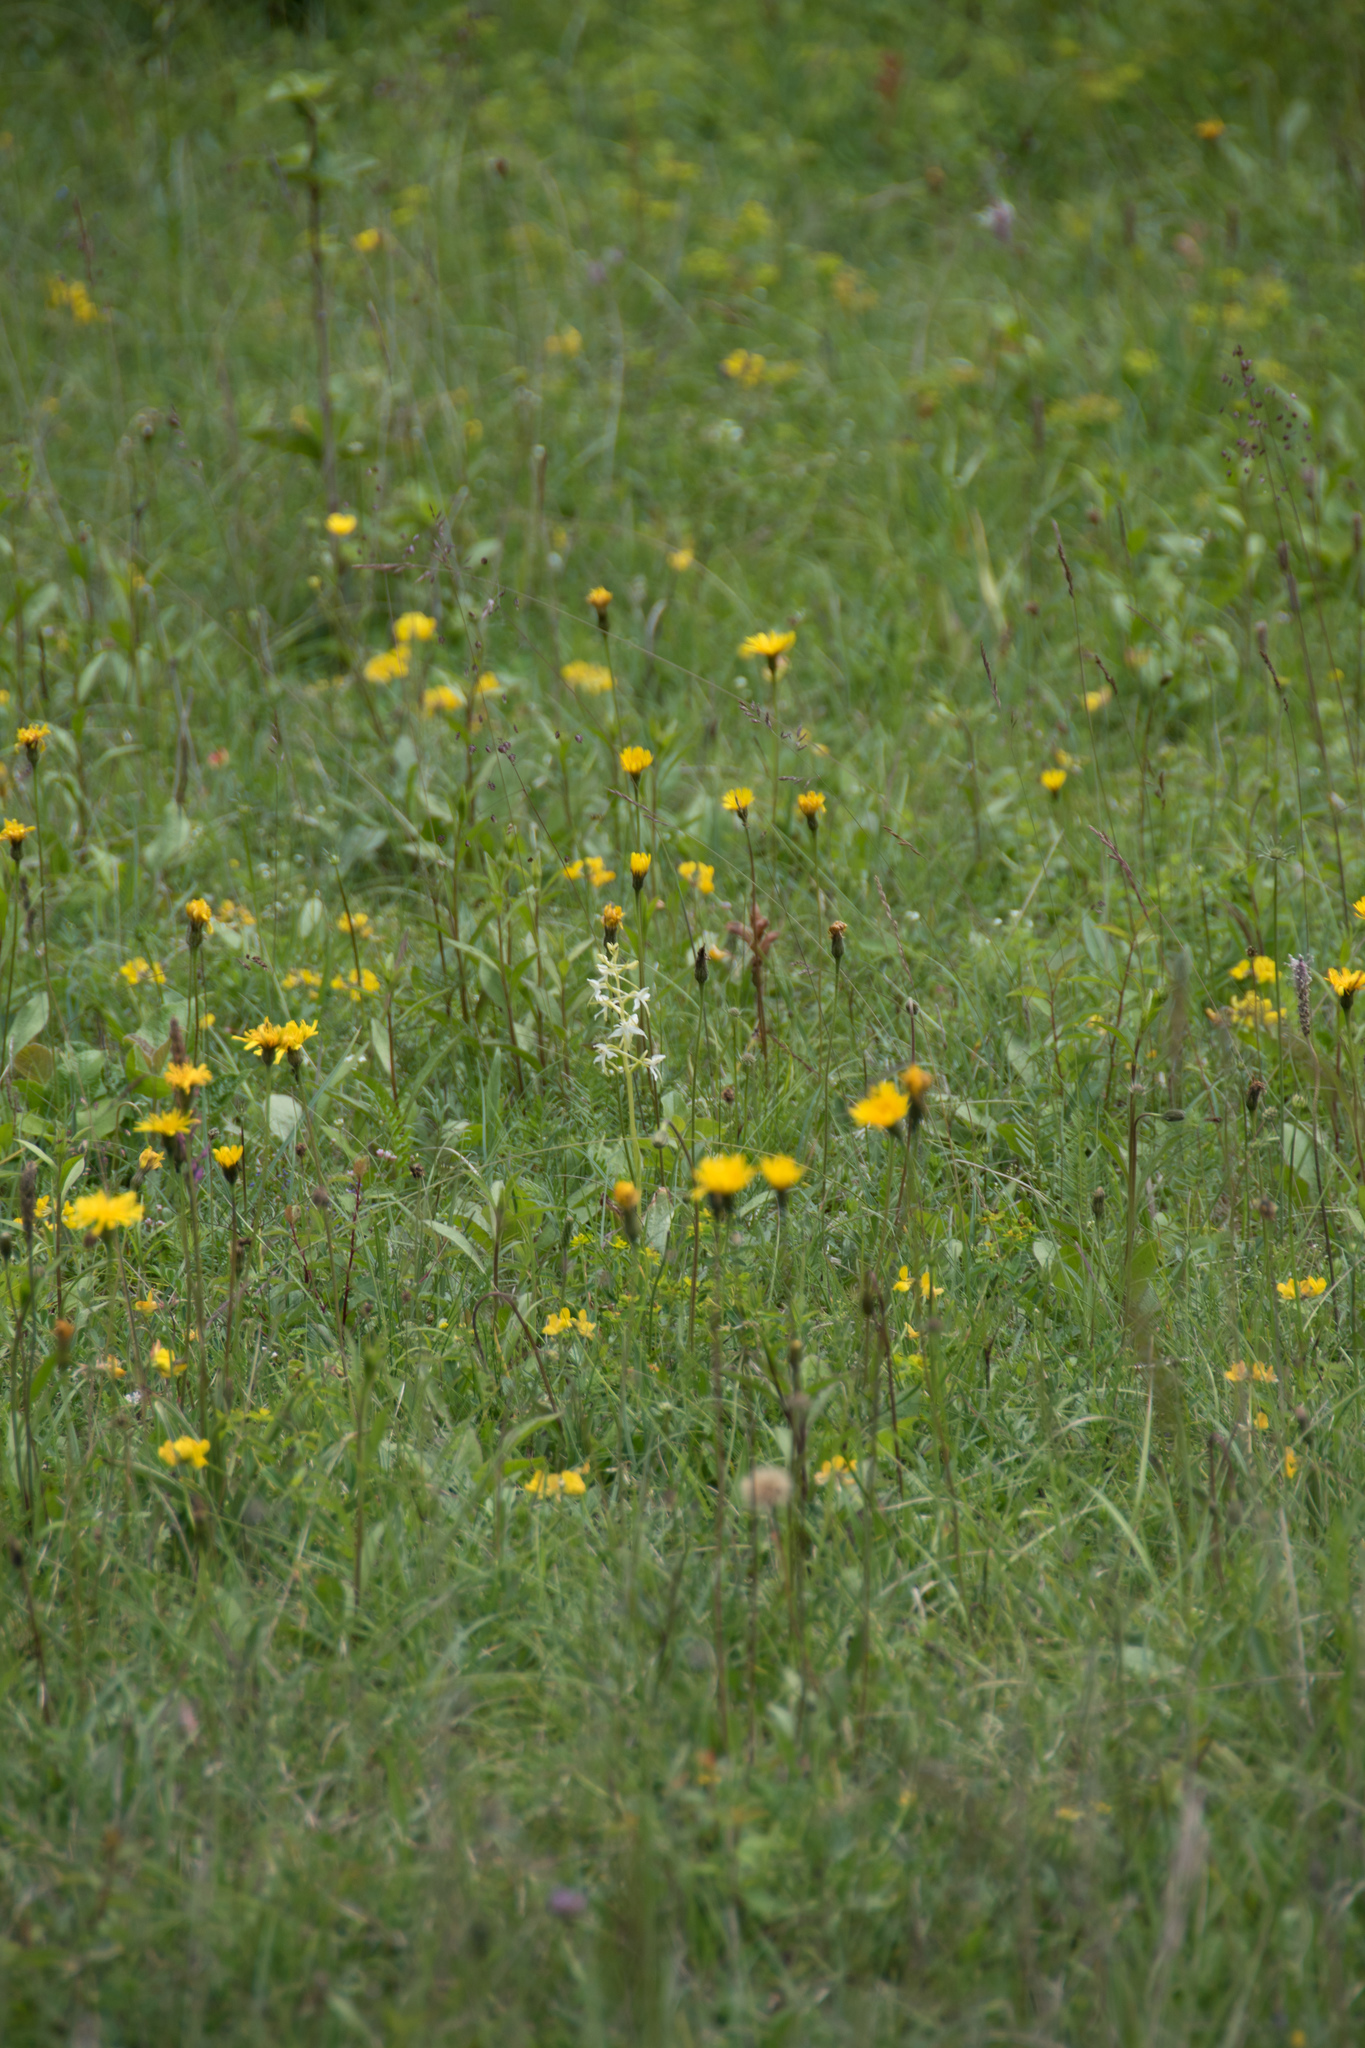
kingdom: Plantae
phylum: Tracheophyta
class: Liliopsida
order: Asparagales
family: Orchidaceae
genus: Platanthera
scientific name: Platanthera bifolia
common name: Lesser butterfly-orchid
